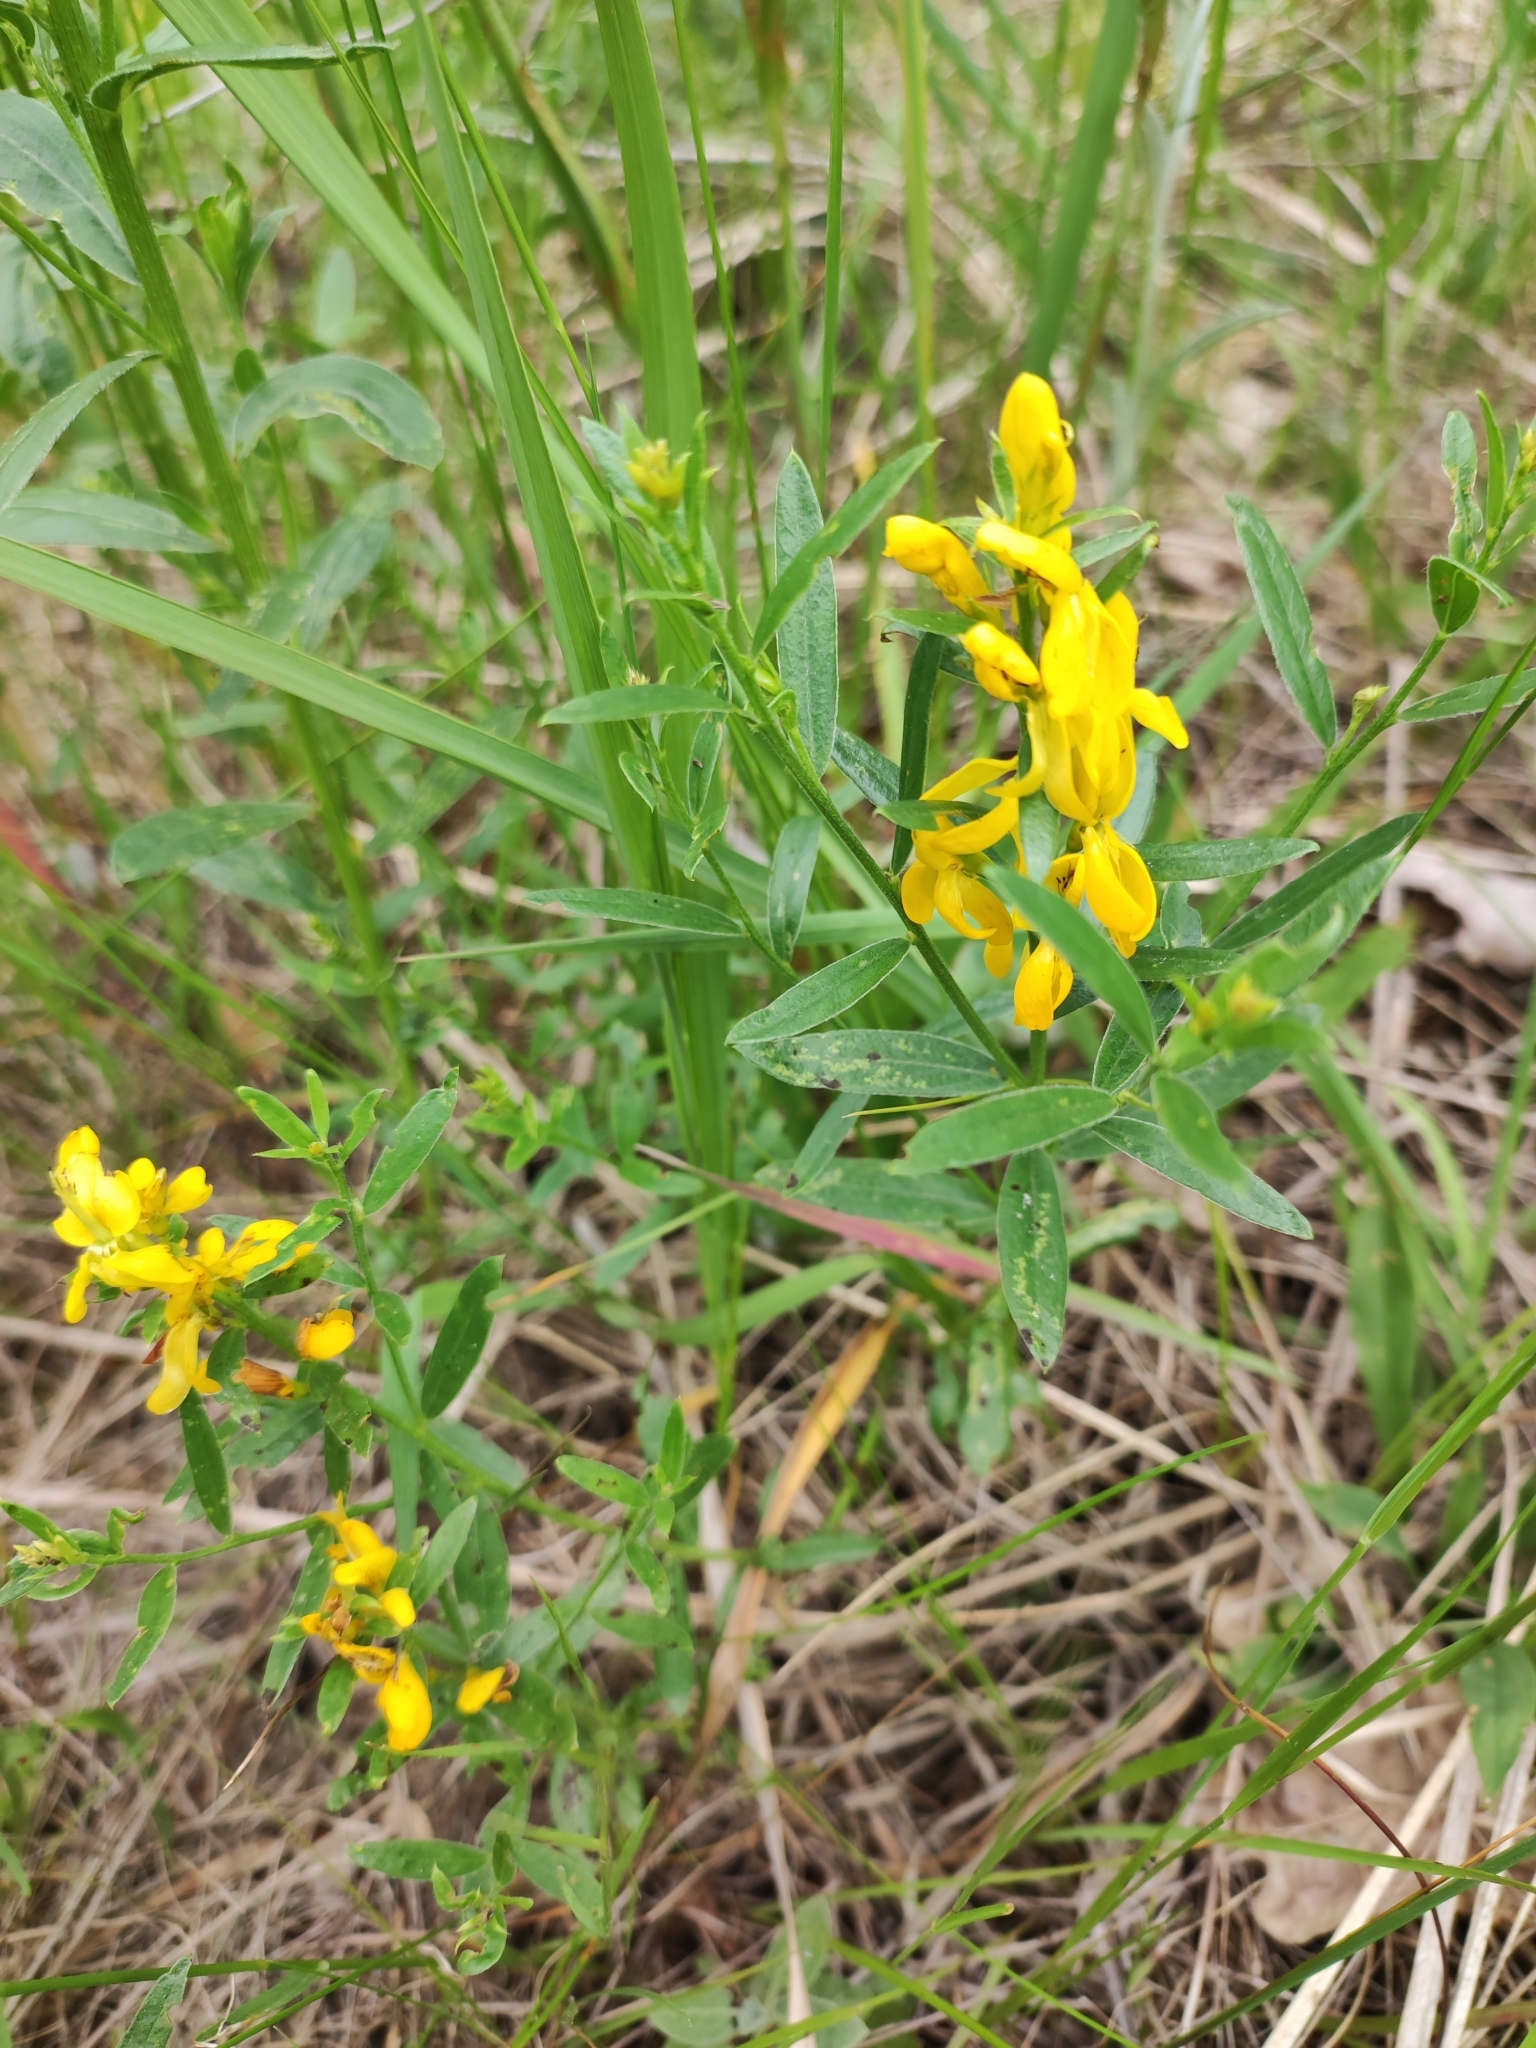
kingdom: Plantae
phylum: Tracheophyta
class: Magnoliopsida
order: Fabales
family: Fabaceae
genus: Genista
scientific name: Genista tinctoria
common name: Dyer's greenweed
